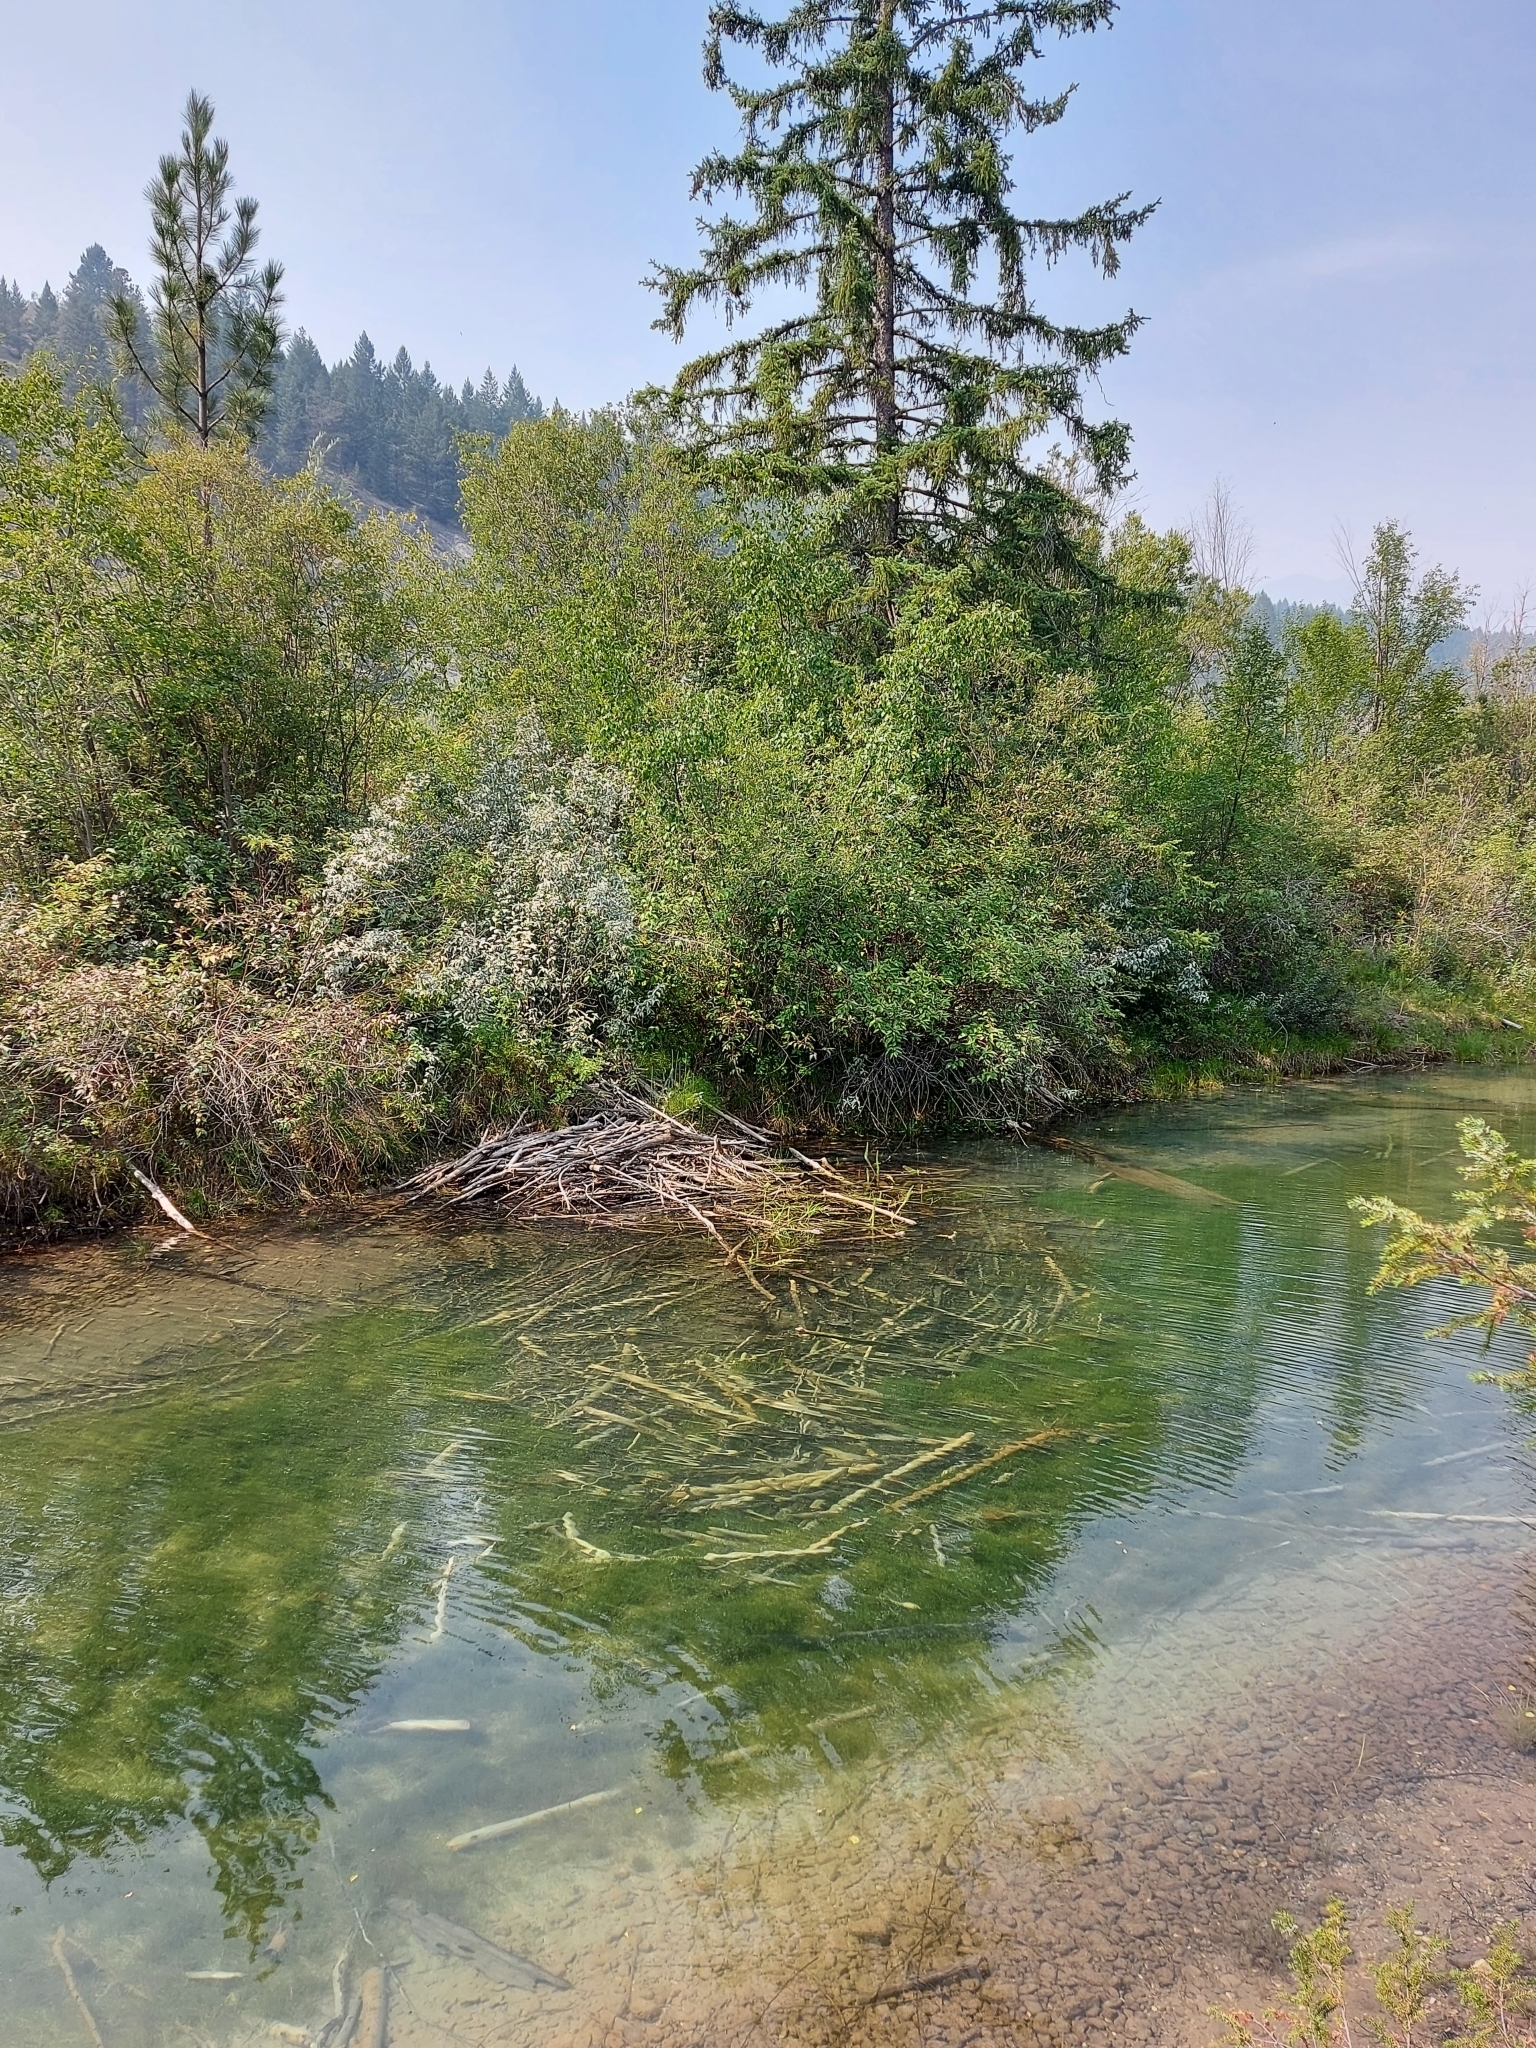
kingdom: Animalia
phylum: Chordata
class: Mammalia
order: Rodentia
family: Castoridae
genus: Castor
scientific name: Castor canadensis
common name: American beaver
